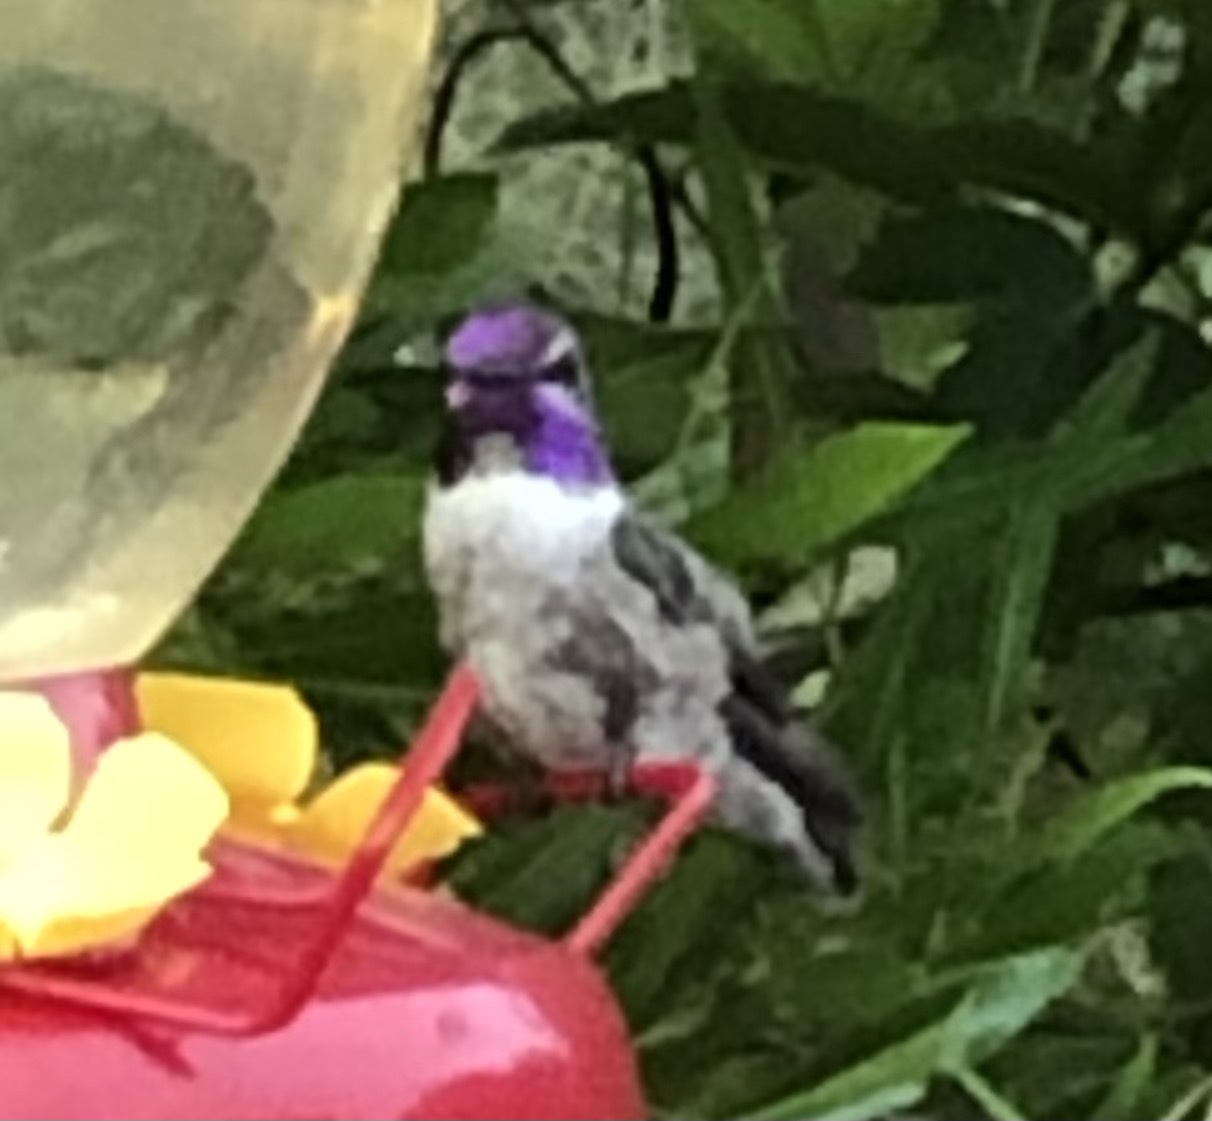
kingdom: Animalia
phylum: Chordata
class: Aves
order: Apodiformes
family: Trochilidae
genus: Calypte
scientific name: Calypte costae
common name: Costa's hummingbird
